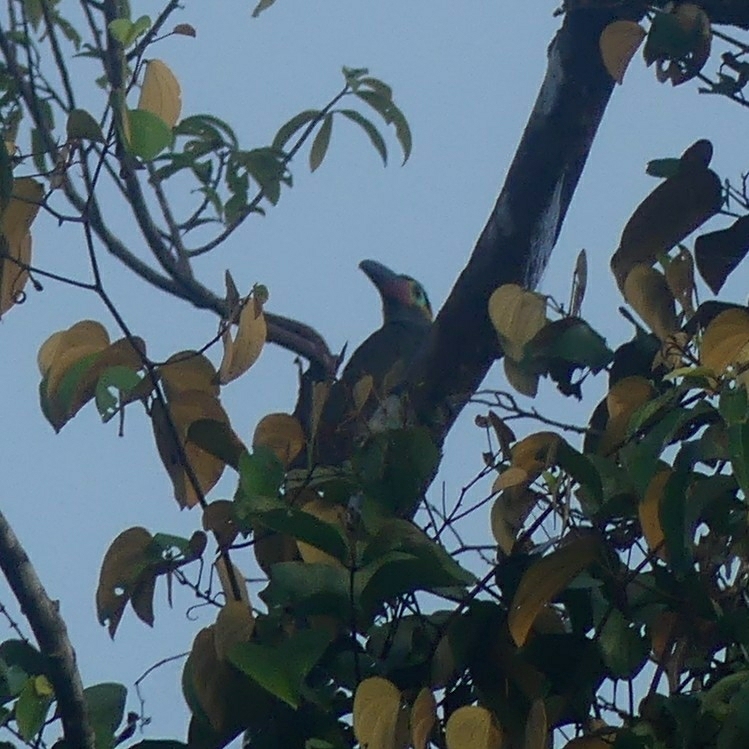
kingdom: Animalia
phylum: Chordata
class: Aves
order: Piciformes
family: Ramphastidae
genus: Selenidera
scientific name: Selenidera piperivora
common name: Guianan toucanet
